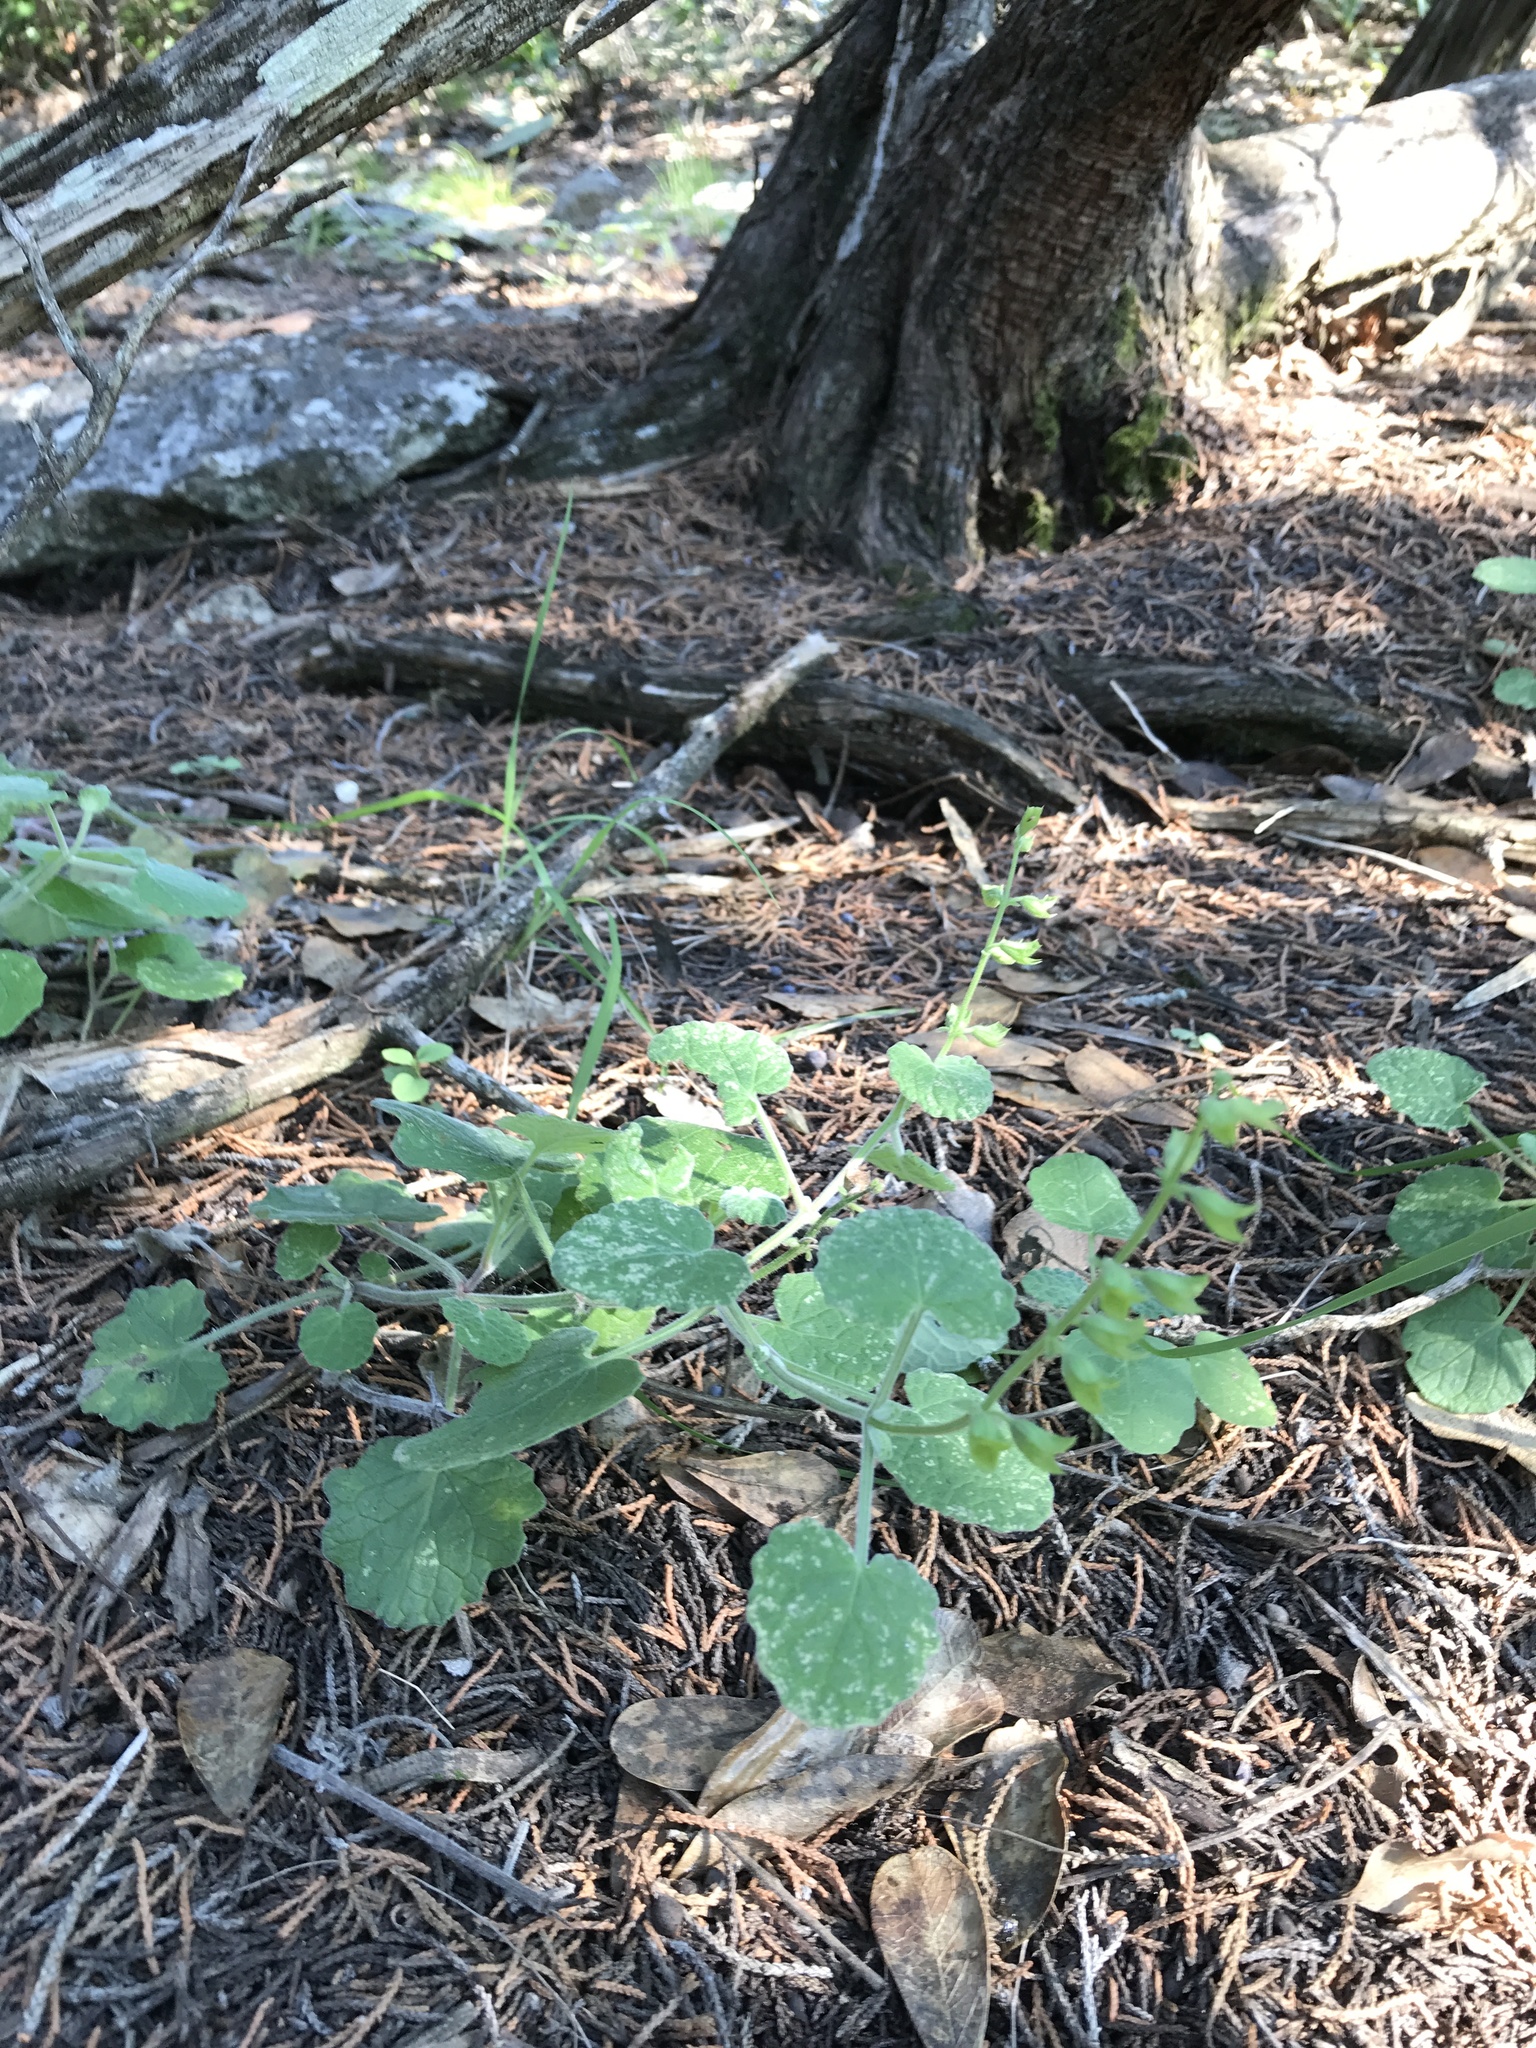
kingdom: Plantae
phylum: Tracheophyta
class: Magnoliopsida
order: Lamiales
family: Lamiaceae
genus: Salvia
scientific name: Salvia roemeriana
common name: Cedar sage
